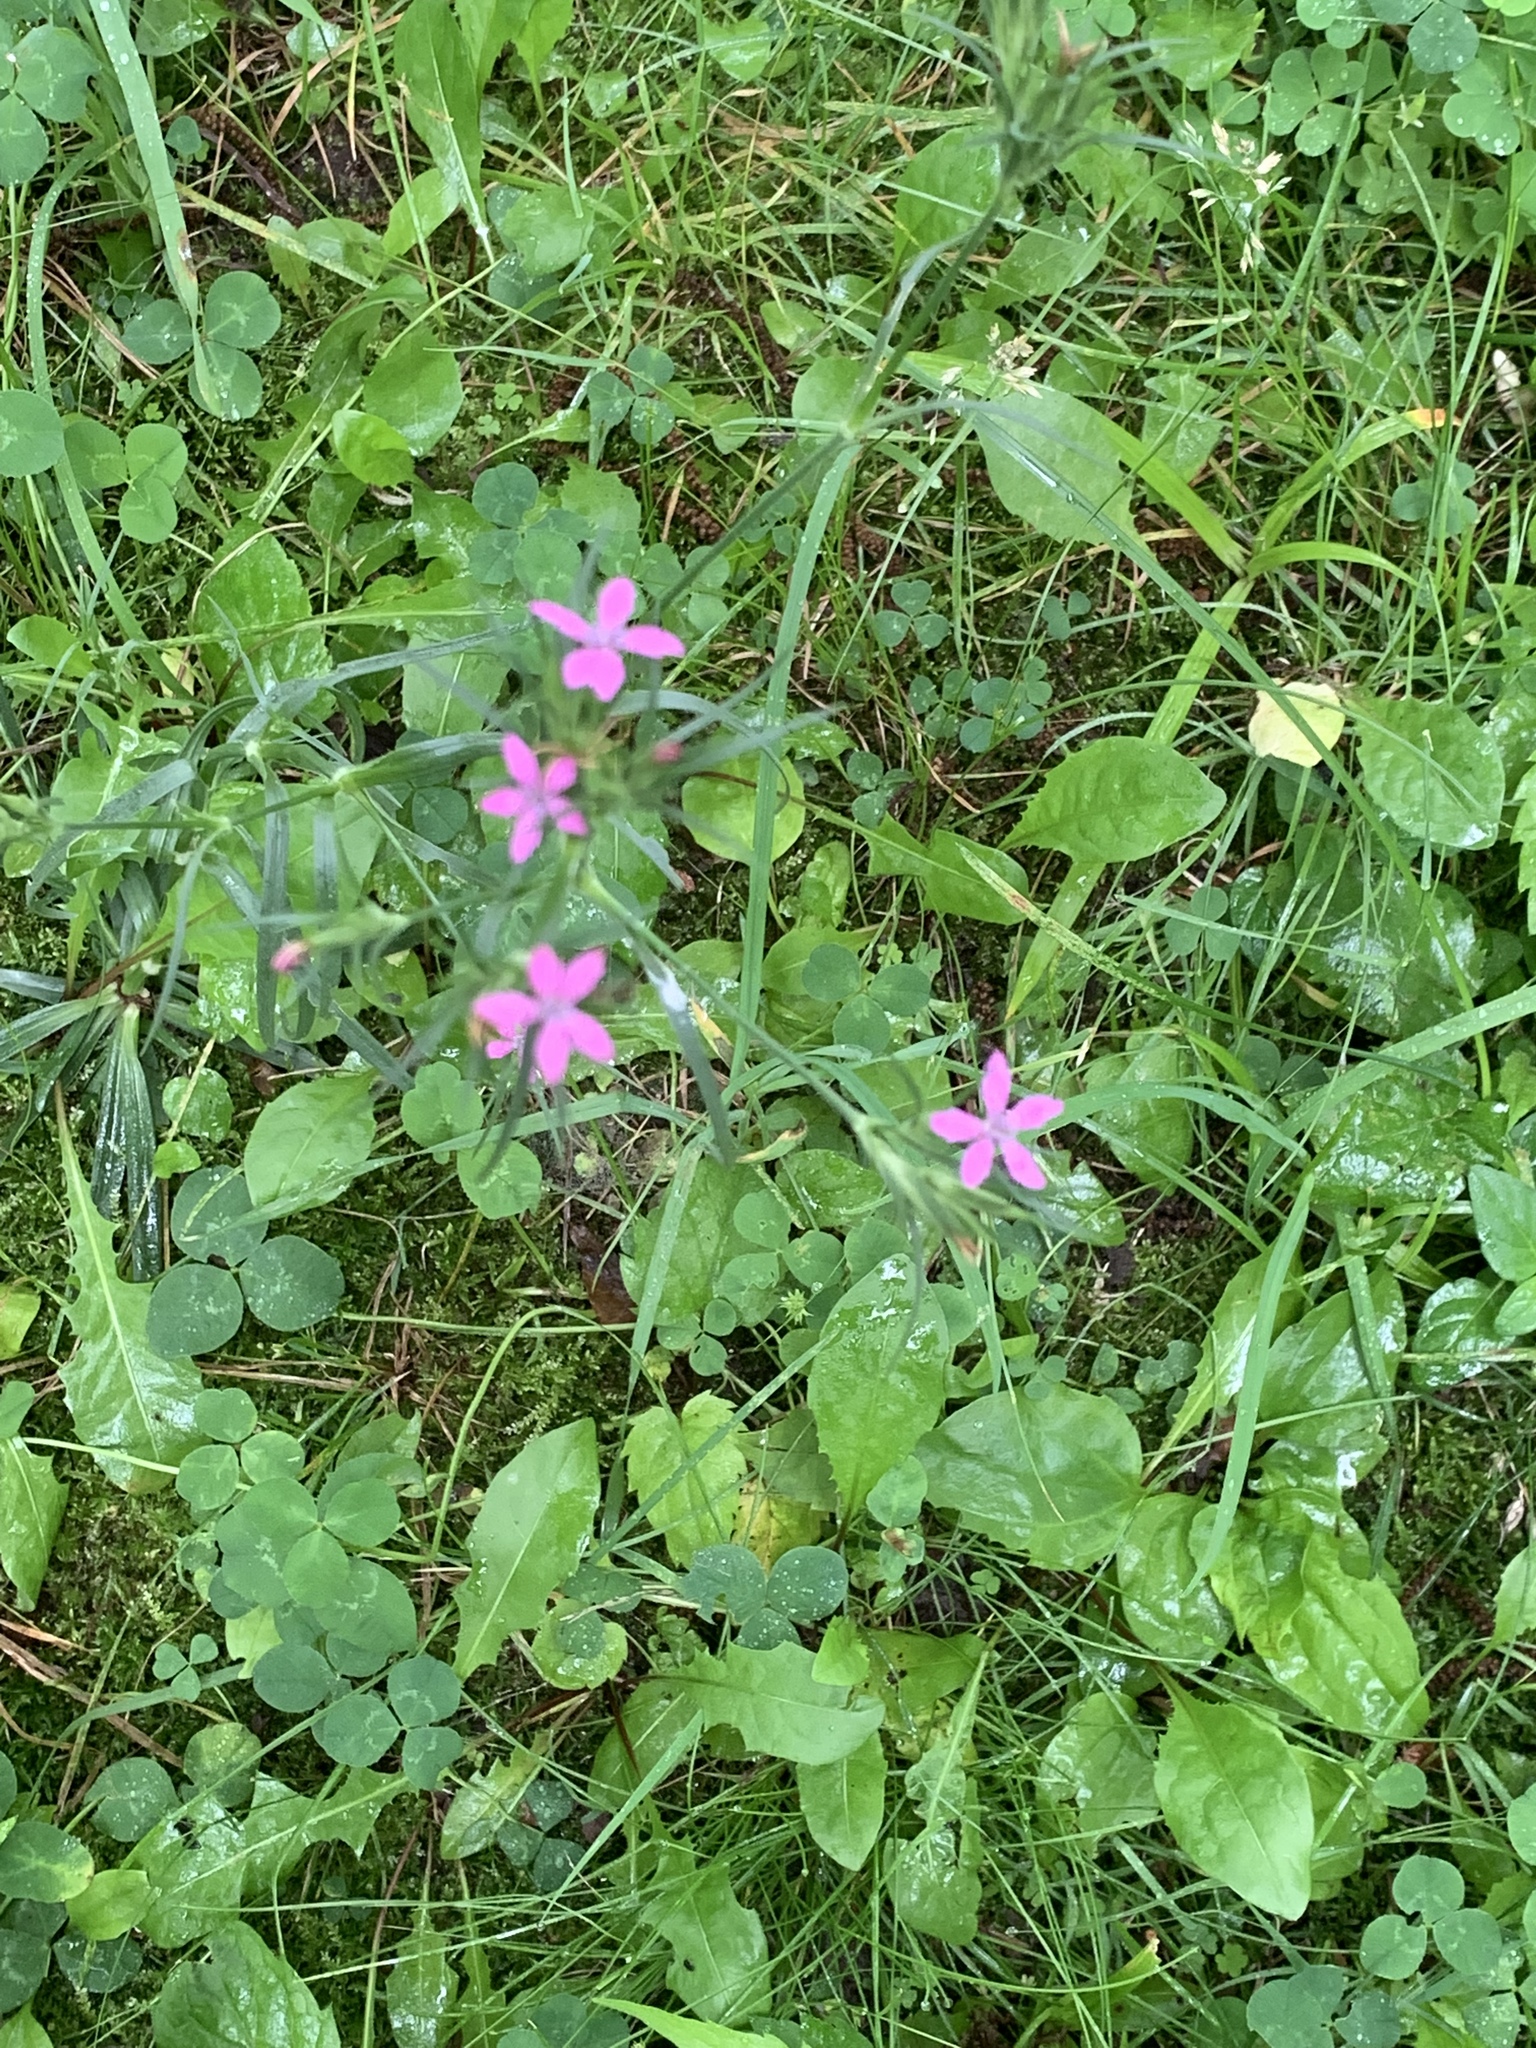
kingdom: Plantae
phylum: Tracheophyta
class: Magnoliopsida
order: Caryophyllales
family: Caryophyllaceae
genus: Dianthus
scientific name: Dianthus armeria
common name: Deptford pink
